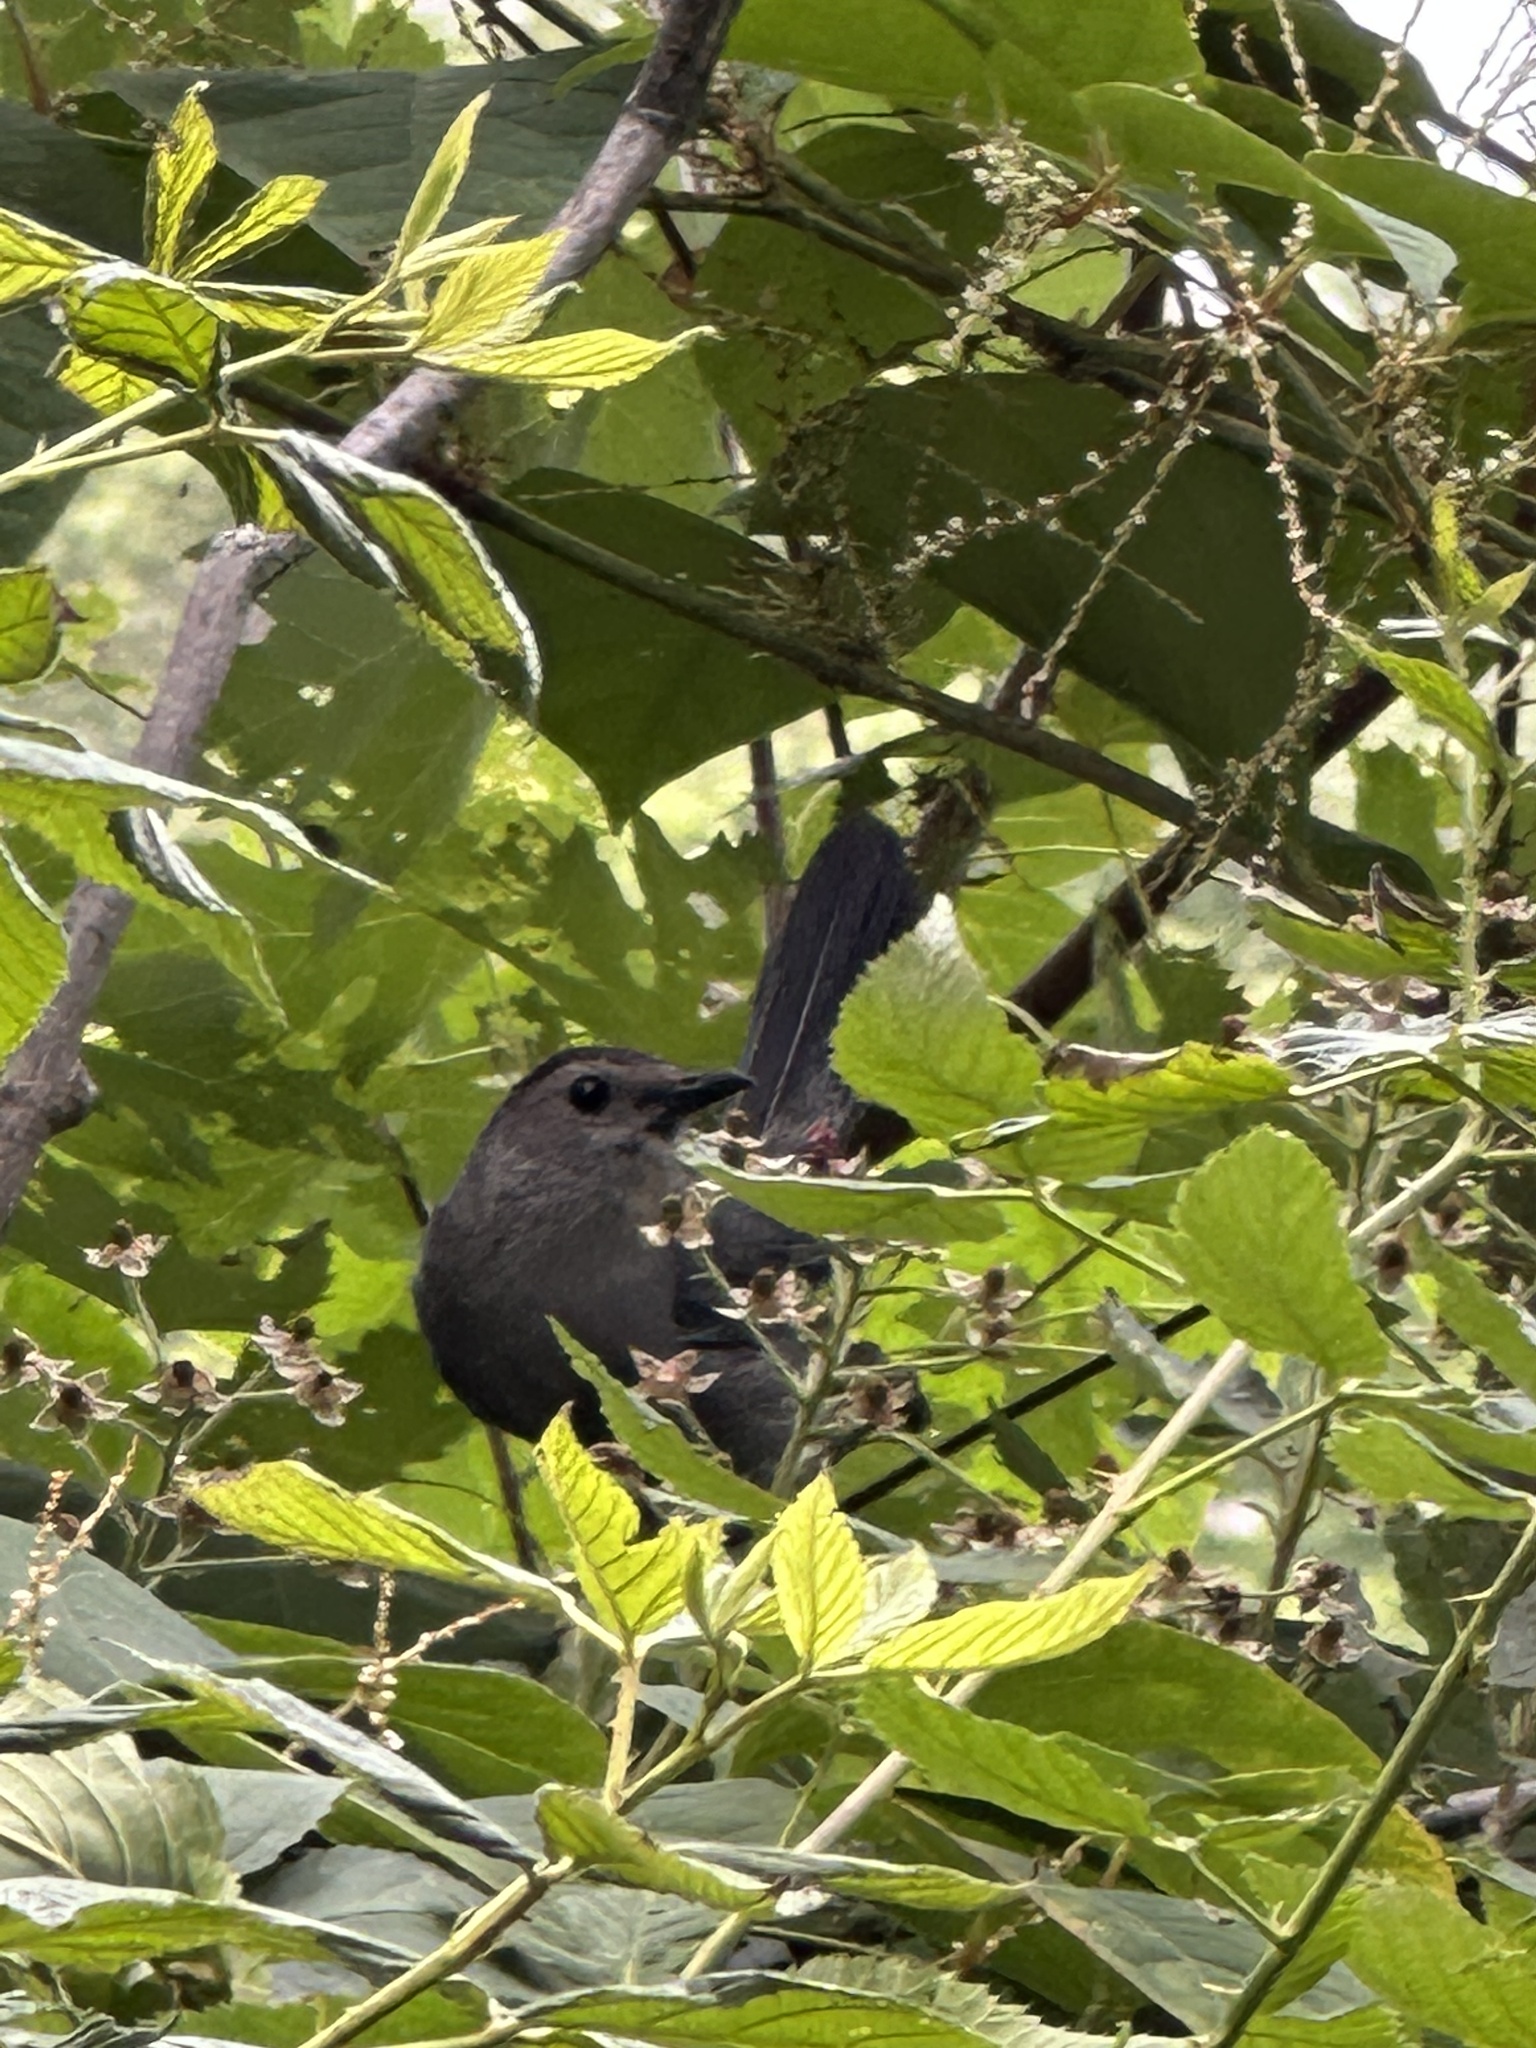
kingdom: Animalia
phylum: Chordata
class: Aves
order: Passeriformes
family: Mimidae
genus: Dumetella
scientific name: Dumetella carolinensis
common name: Gray catbird
